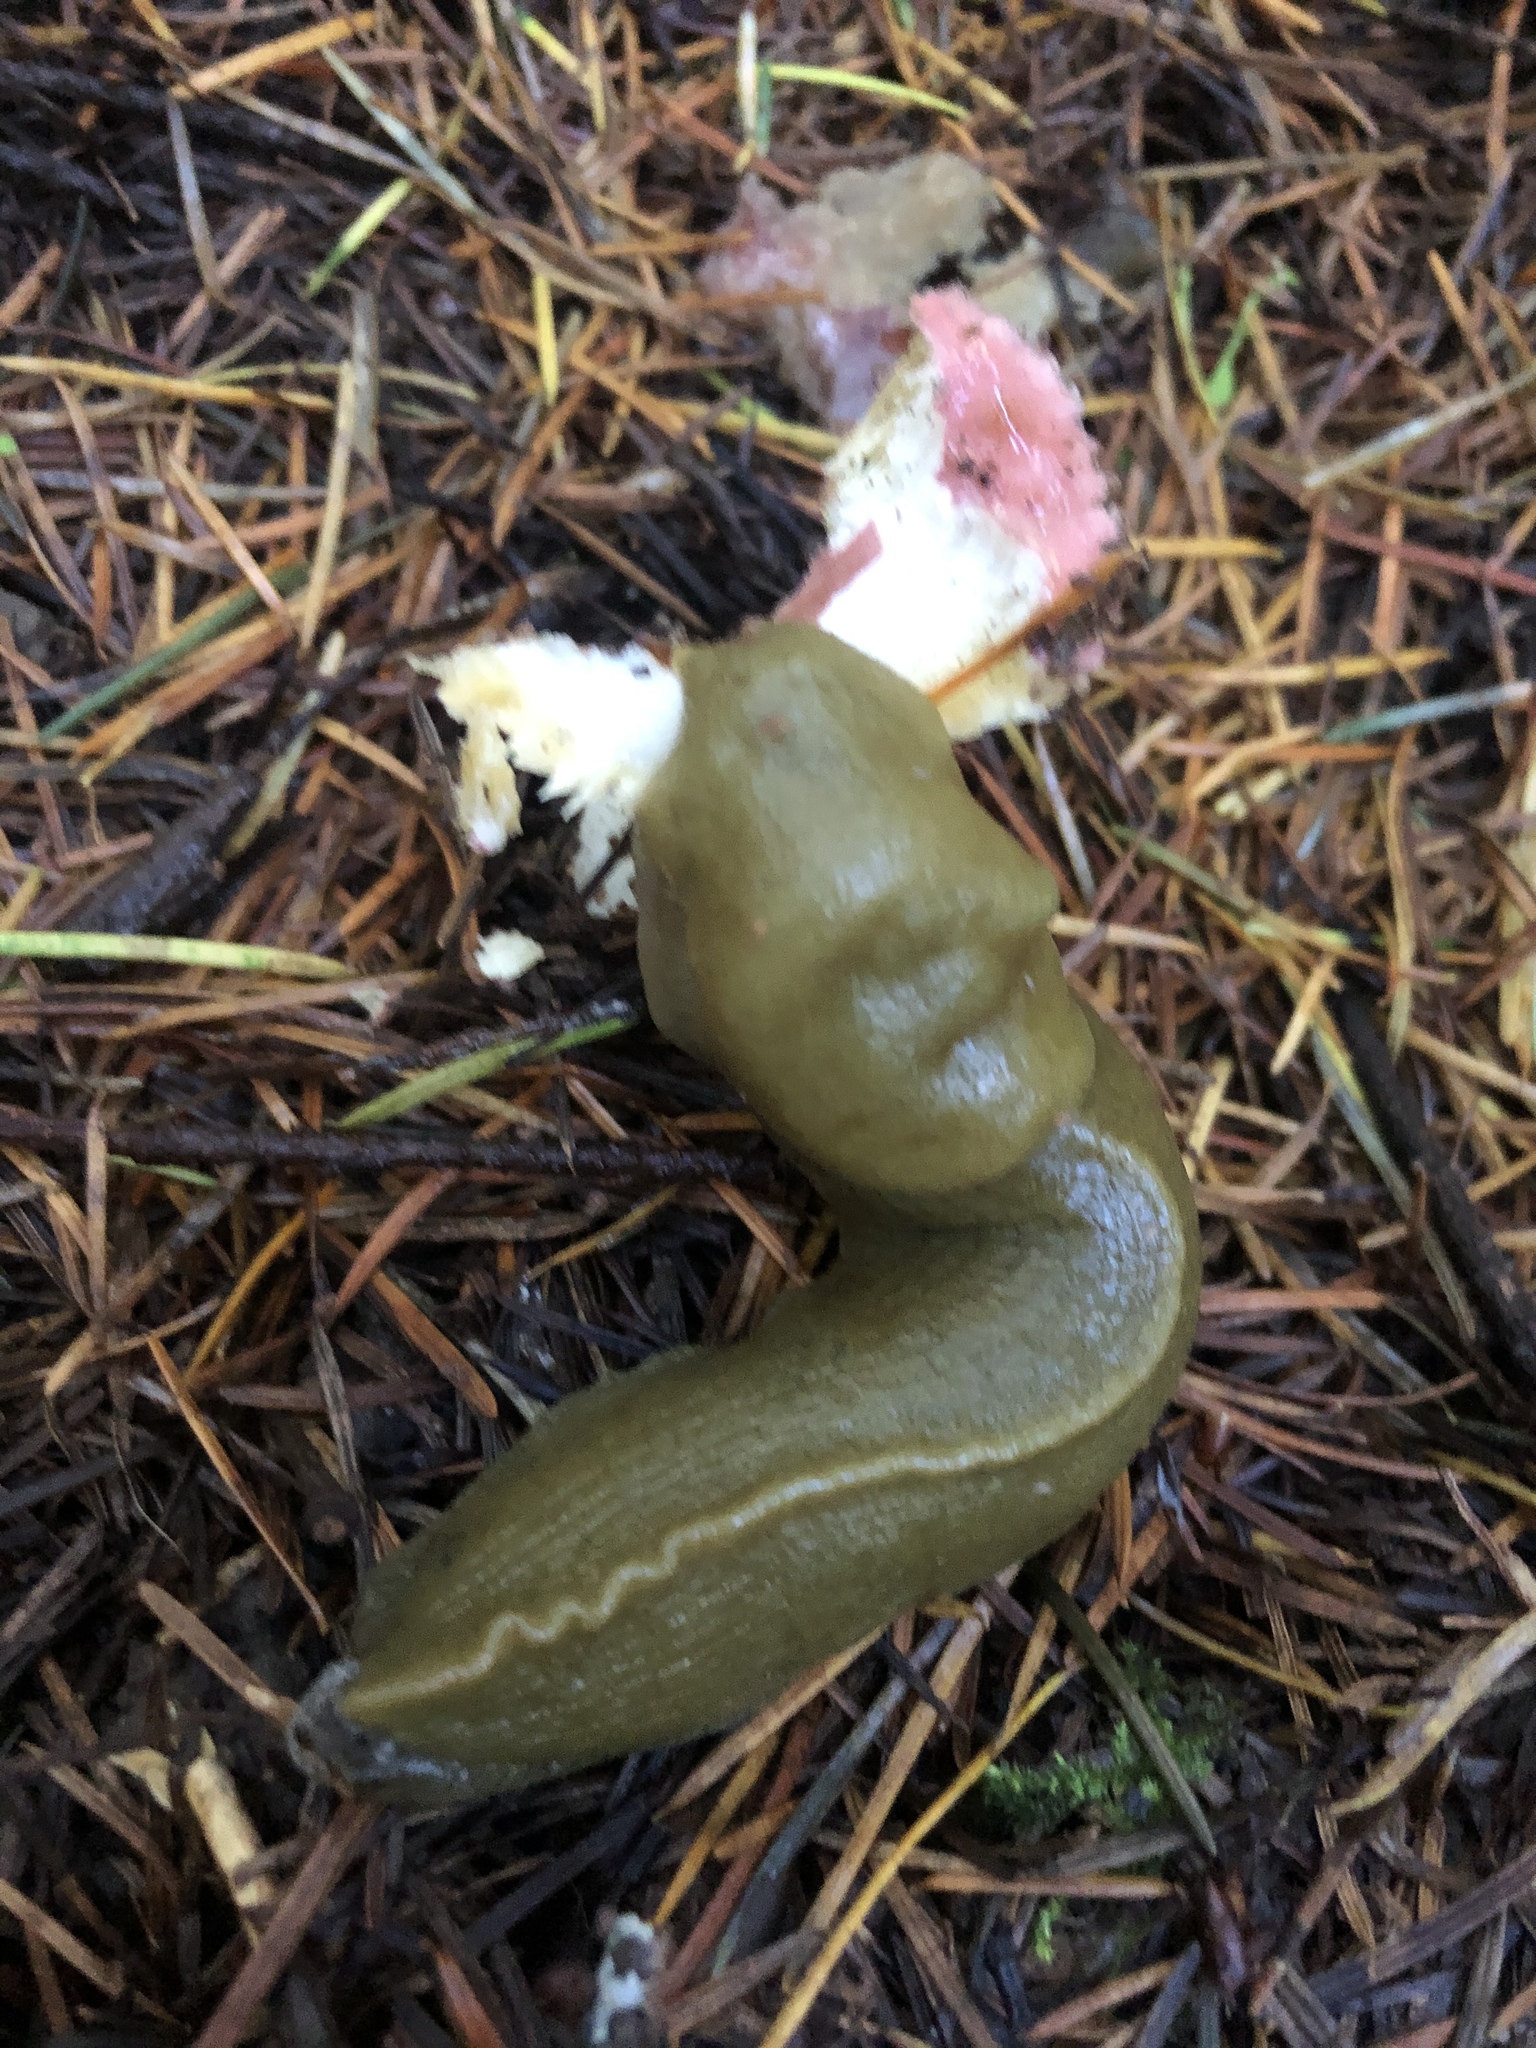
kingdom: Animalia
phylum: Mollusca
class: Gastropoda
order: Stylommatophora
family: Ariolimacidae
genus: Ariolimax
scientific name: Ariolimax columbianus
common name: Pacific banana slug
